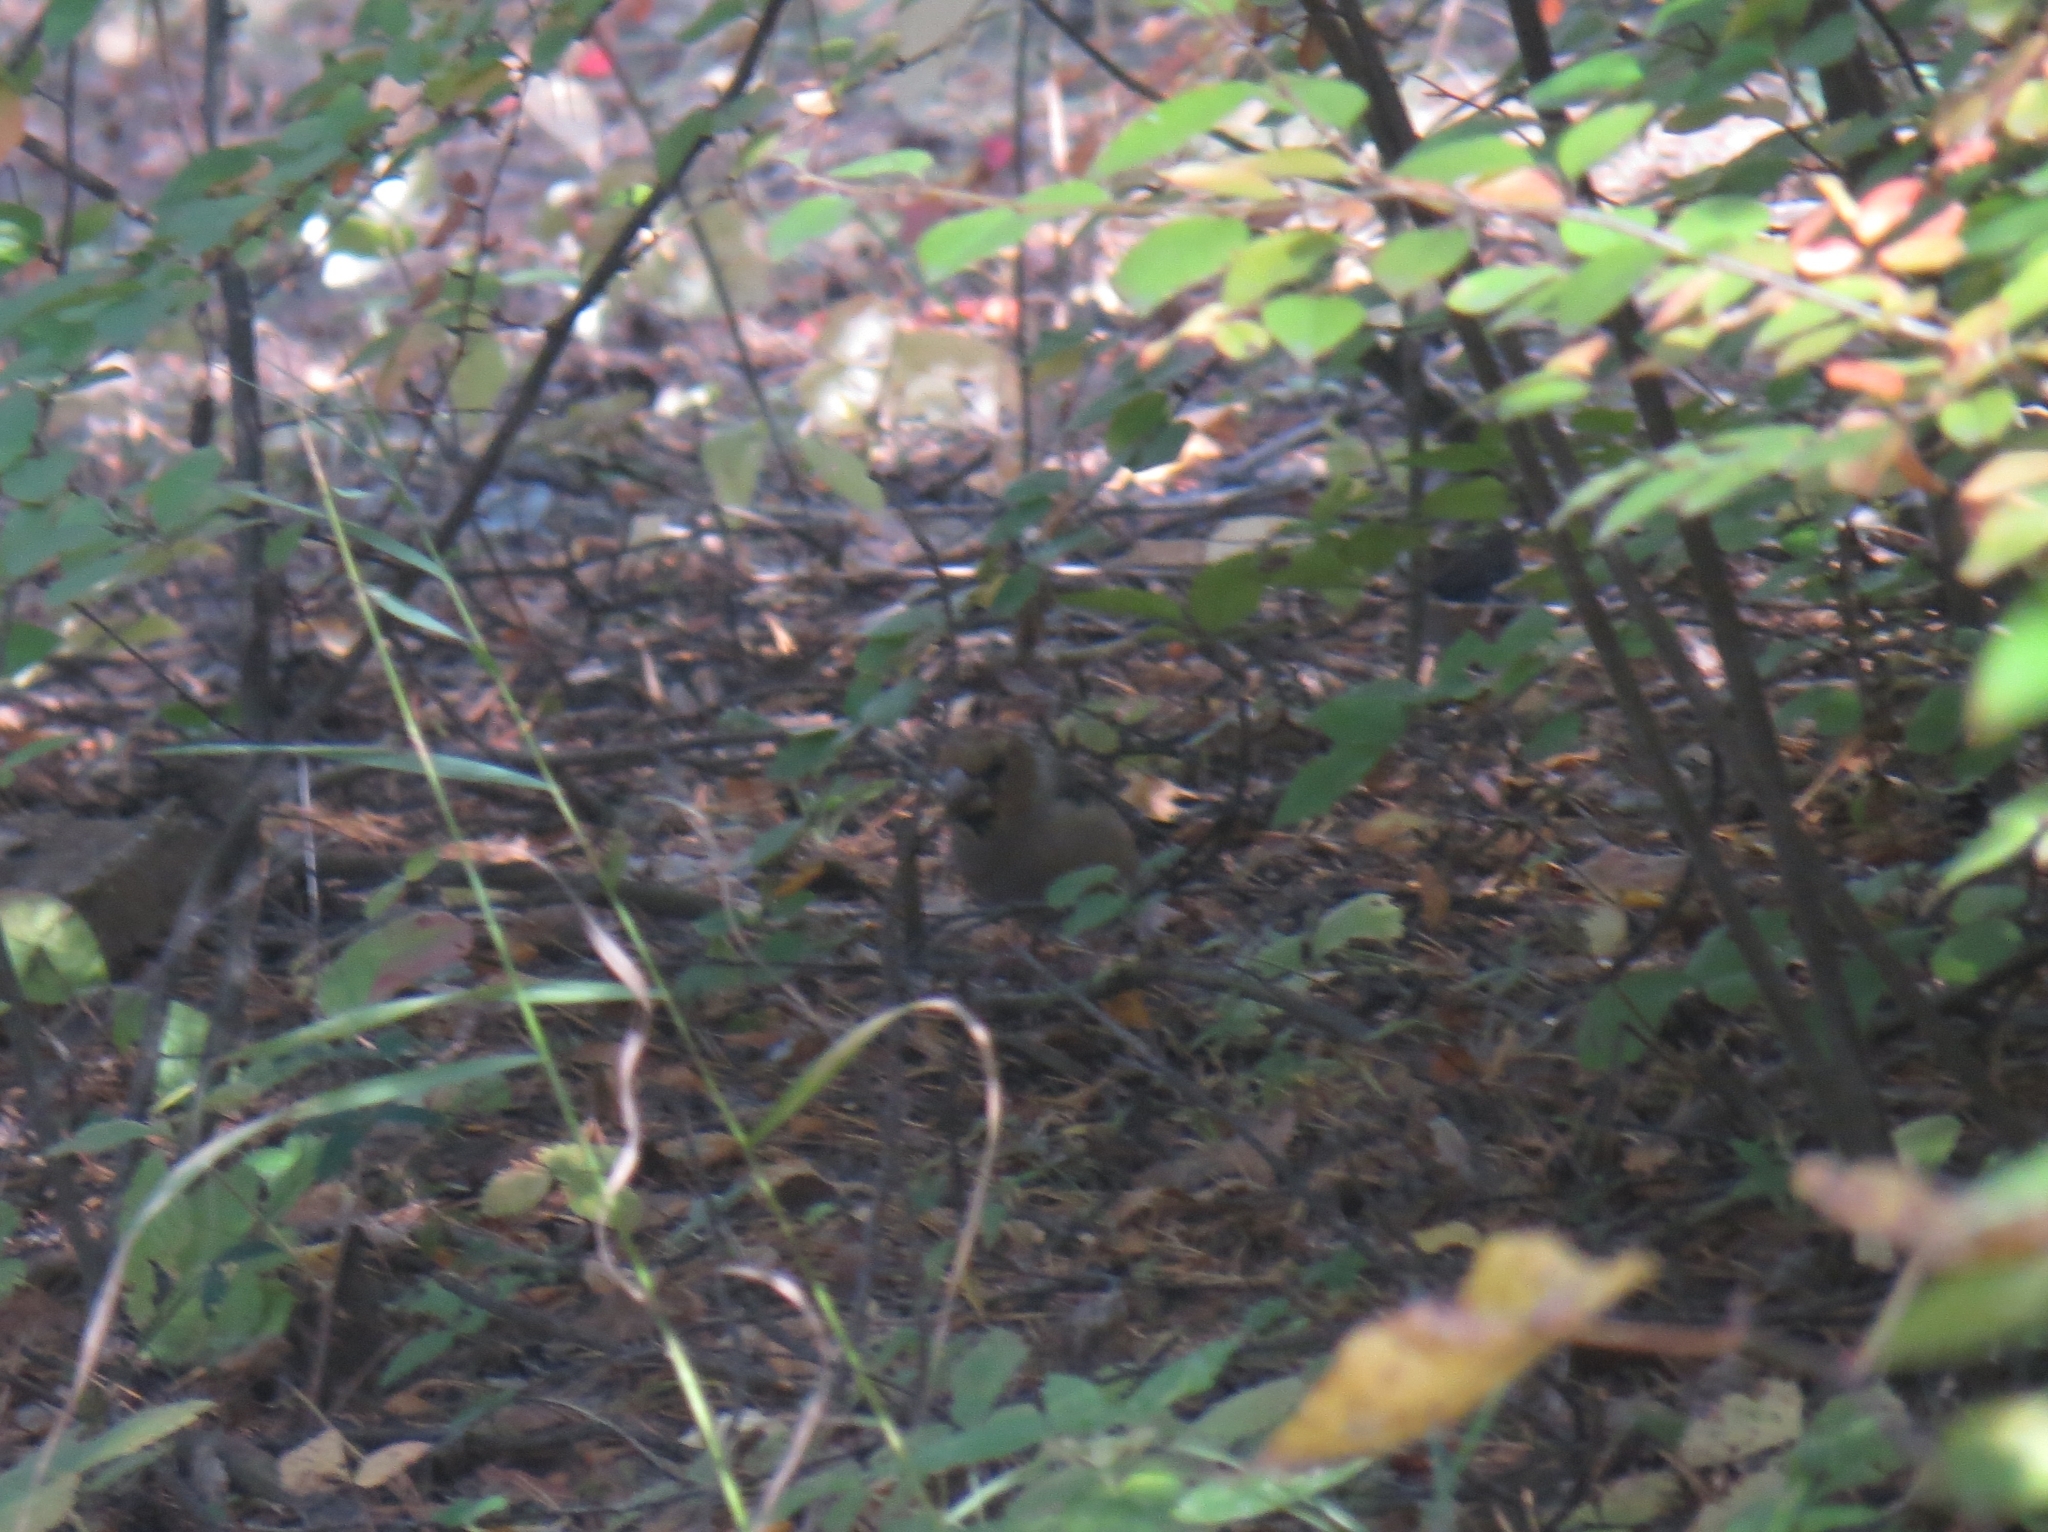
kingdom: Animalia
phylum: Chordata
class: Aves
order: Passeriformes
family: Fringillidae
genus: Coccothraustes
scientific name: Coccothraustes coccothraustes
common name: Hawfinch
